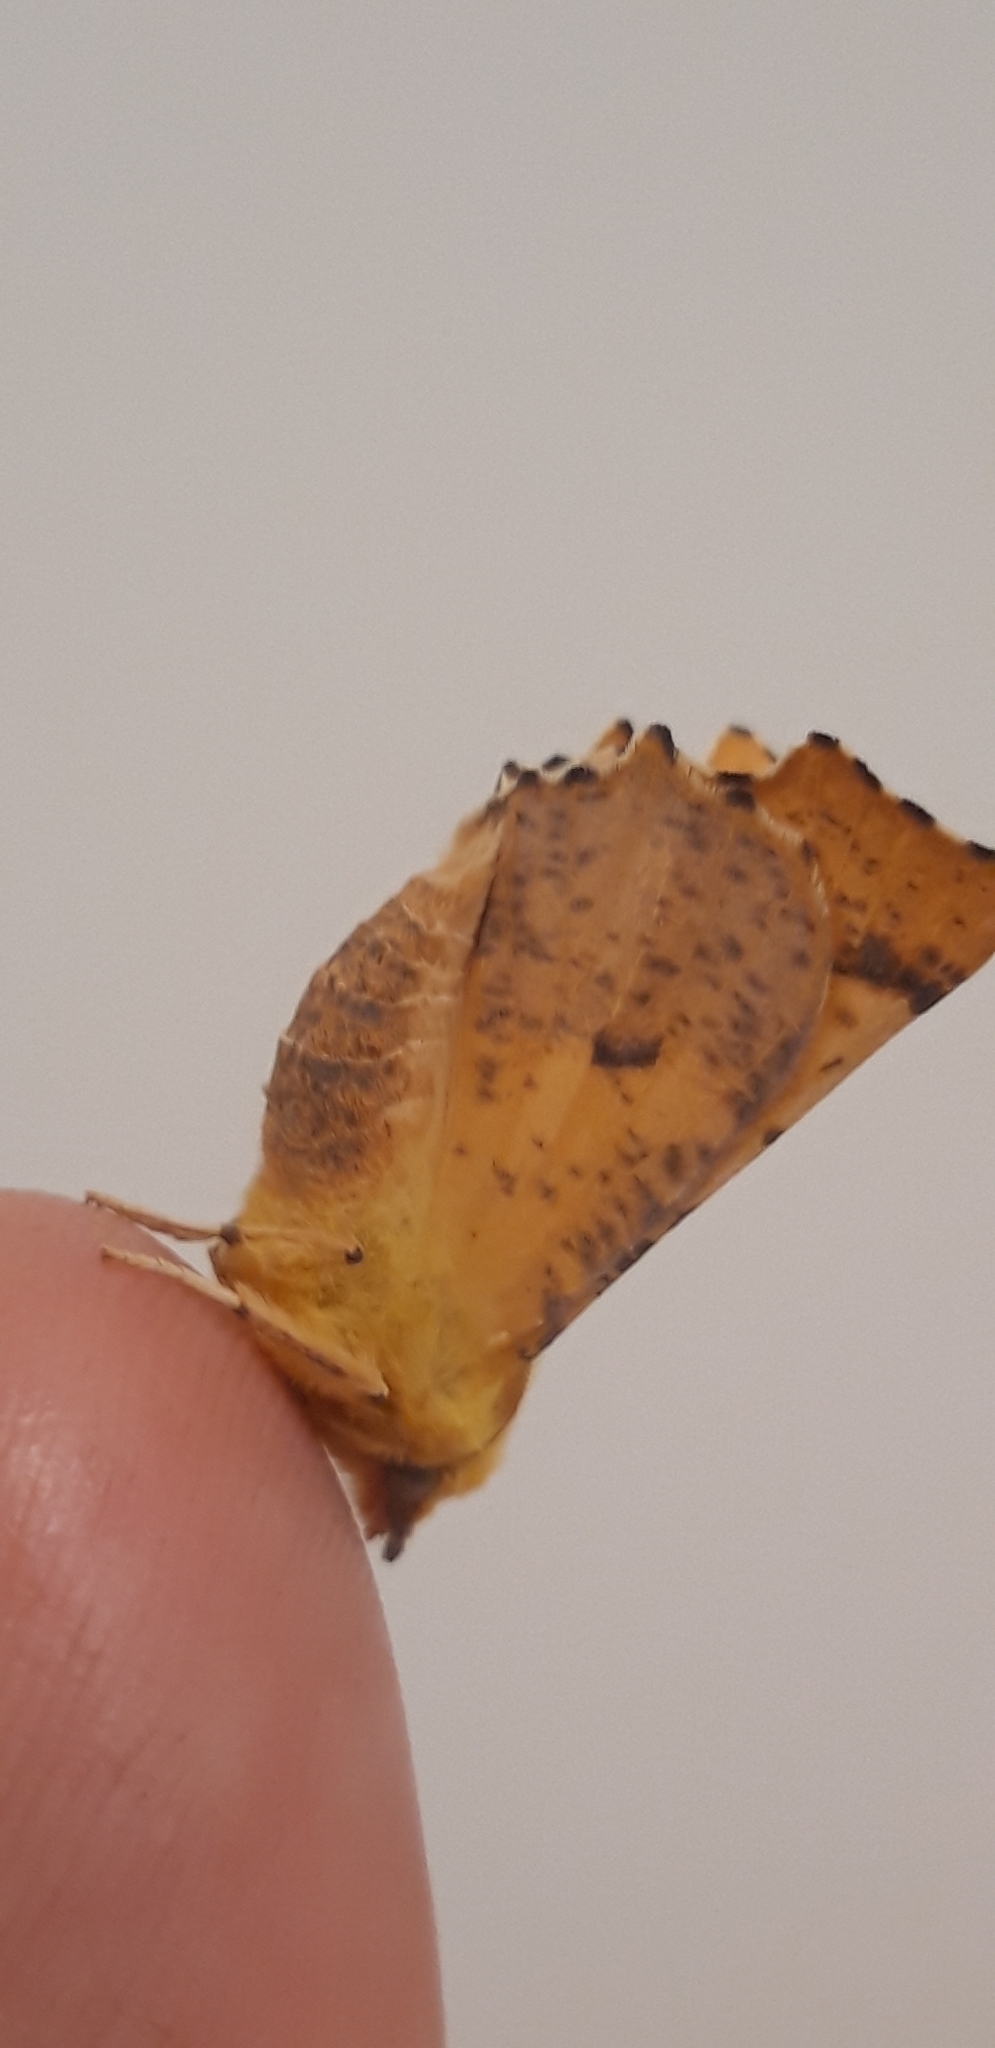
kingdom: Animalia
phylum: Arthropoda
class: Insecta
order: Lepidoptera
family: Geometridae
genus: Ennomos
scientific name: Ennomos alniaria
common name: Canary-shouldered thorn
